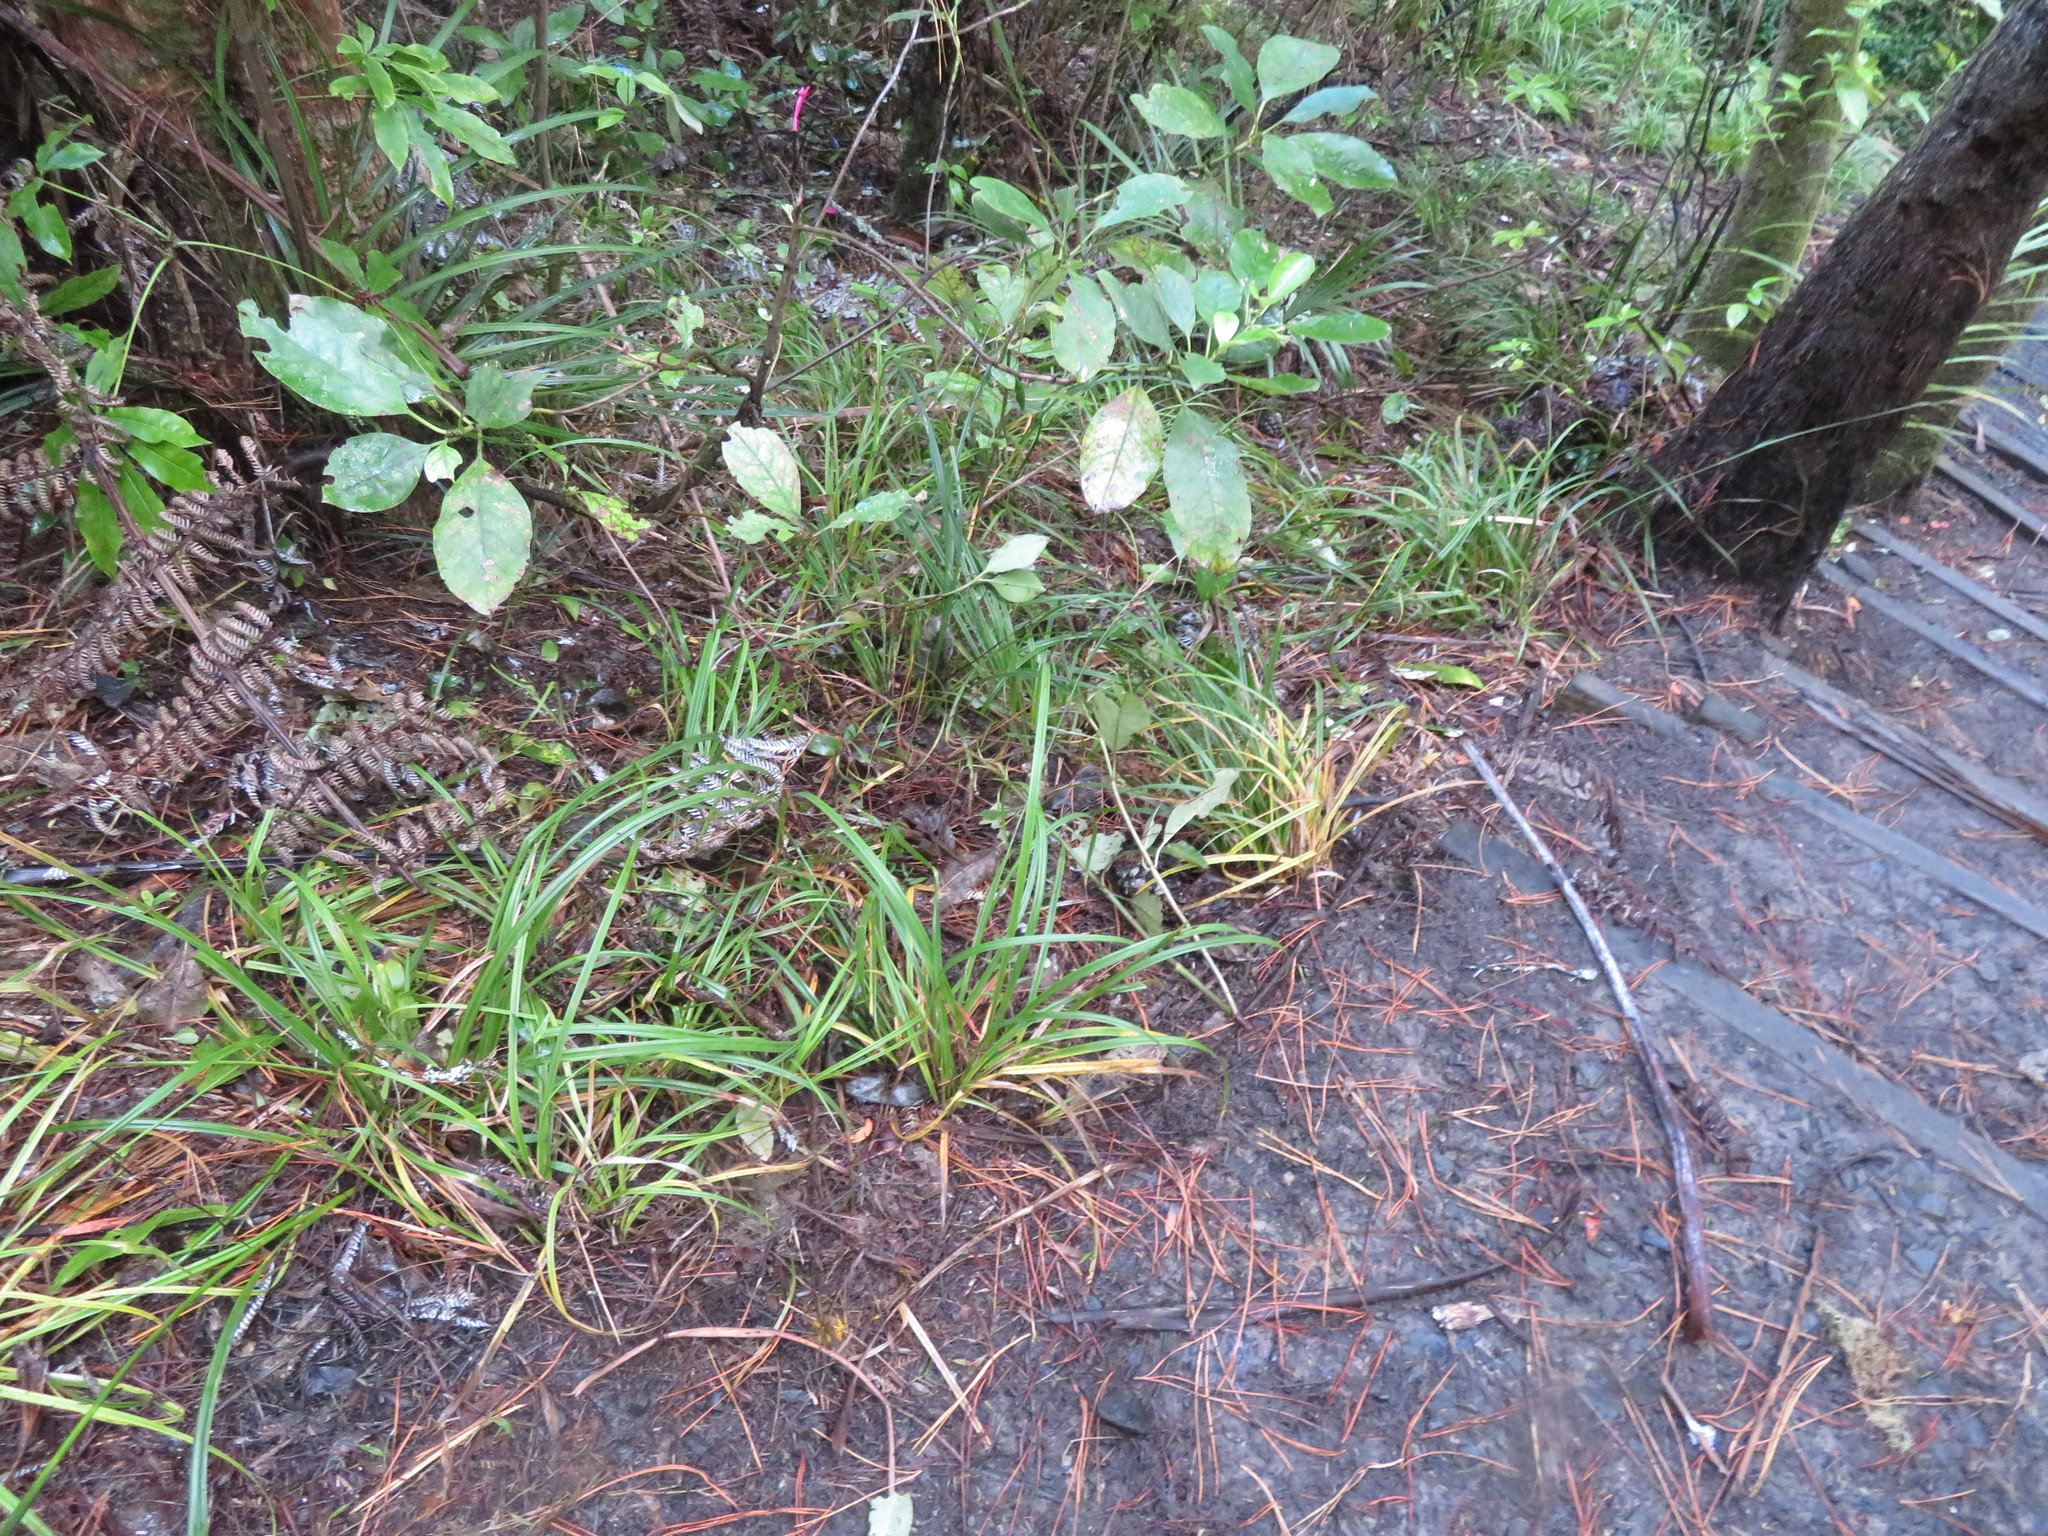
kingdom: Plantae
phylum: Tracheophyta
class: Magnoliopsida
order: Gentianales
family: Rubiaceae
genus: Coprosma
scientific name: Coprosma autumnalis
